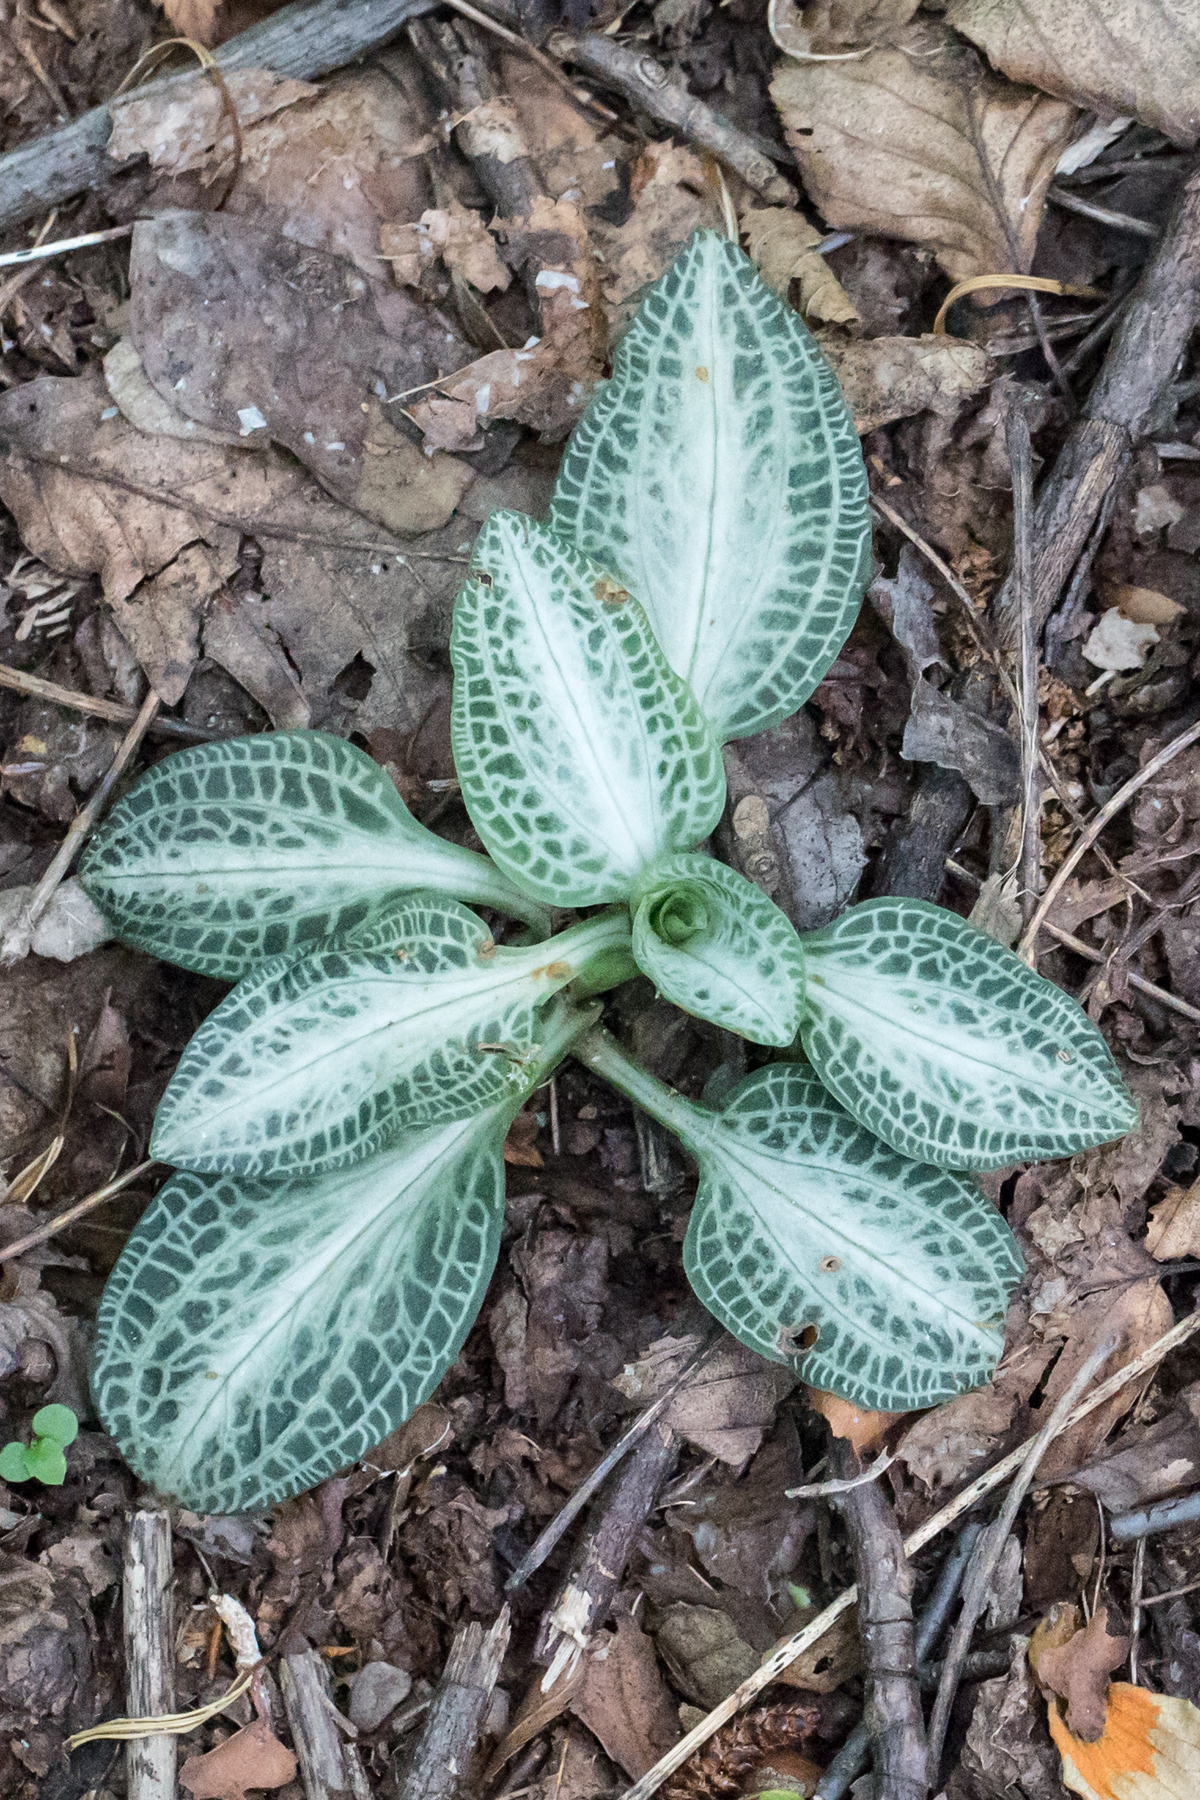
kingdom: Plantae
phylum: Tracheophyta
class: Liliopsida
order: Asparagales
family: Orchidaceae
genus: Goodyera
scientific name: Goodyera pubescens
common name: Downy rattlesnake-plantain
